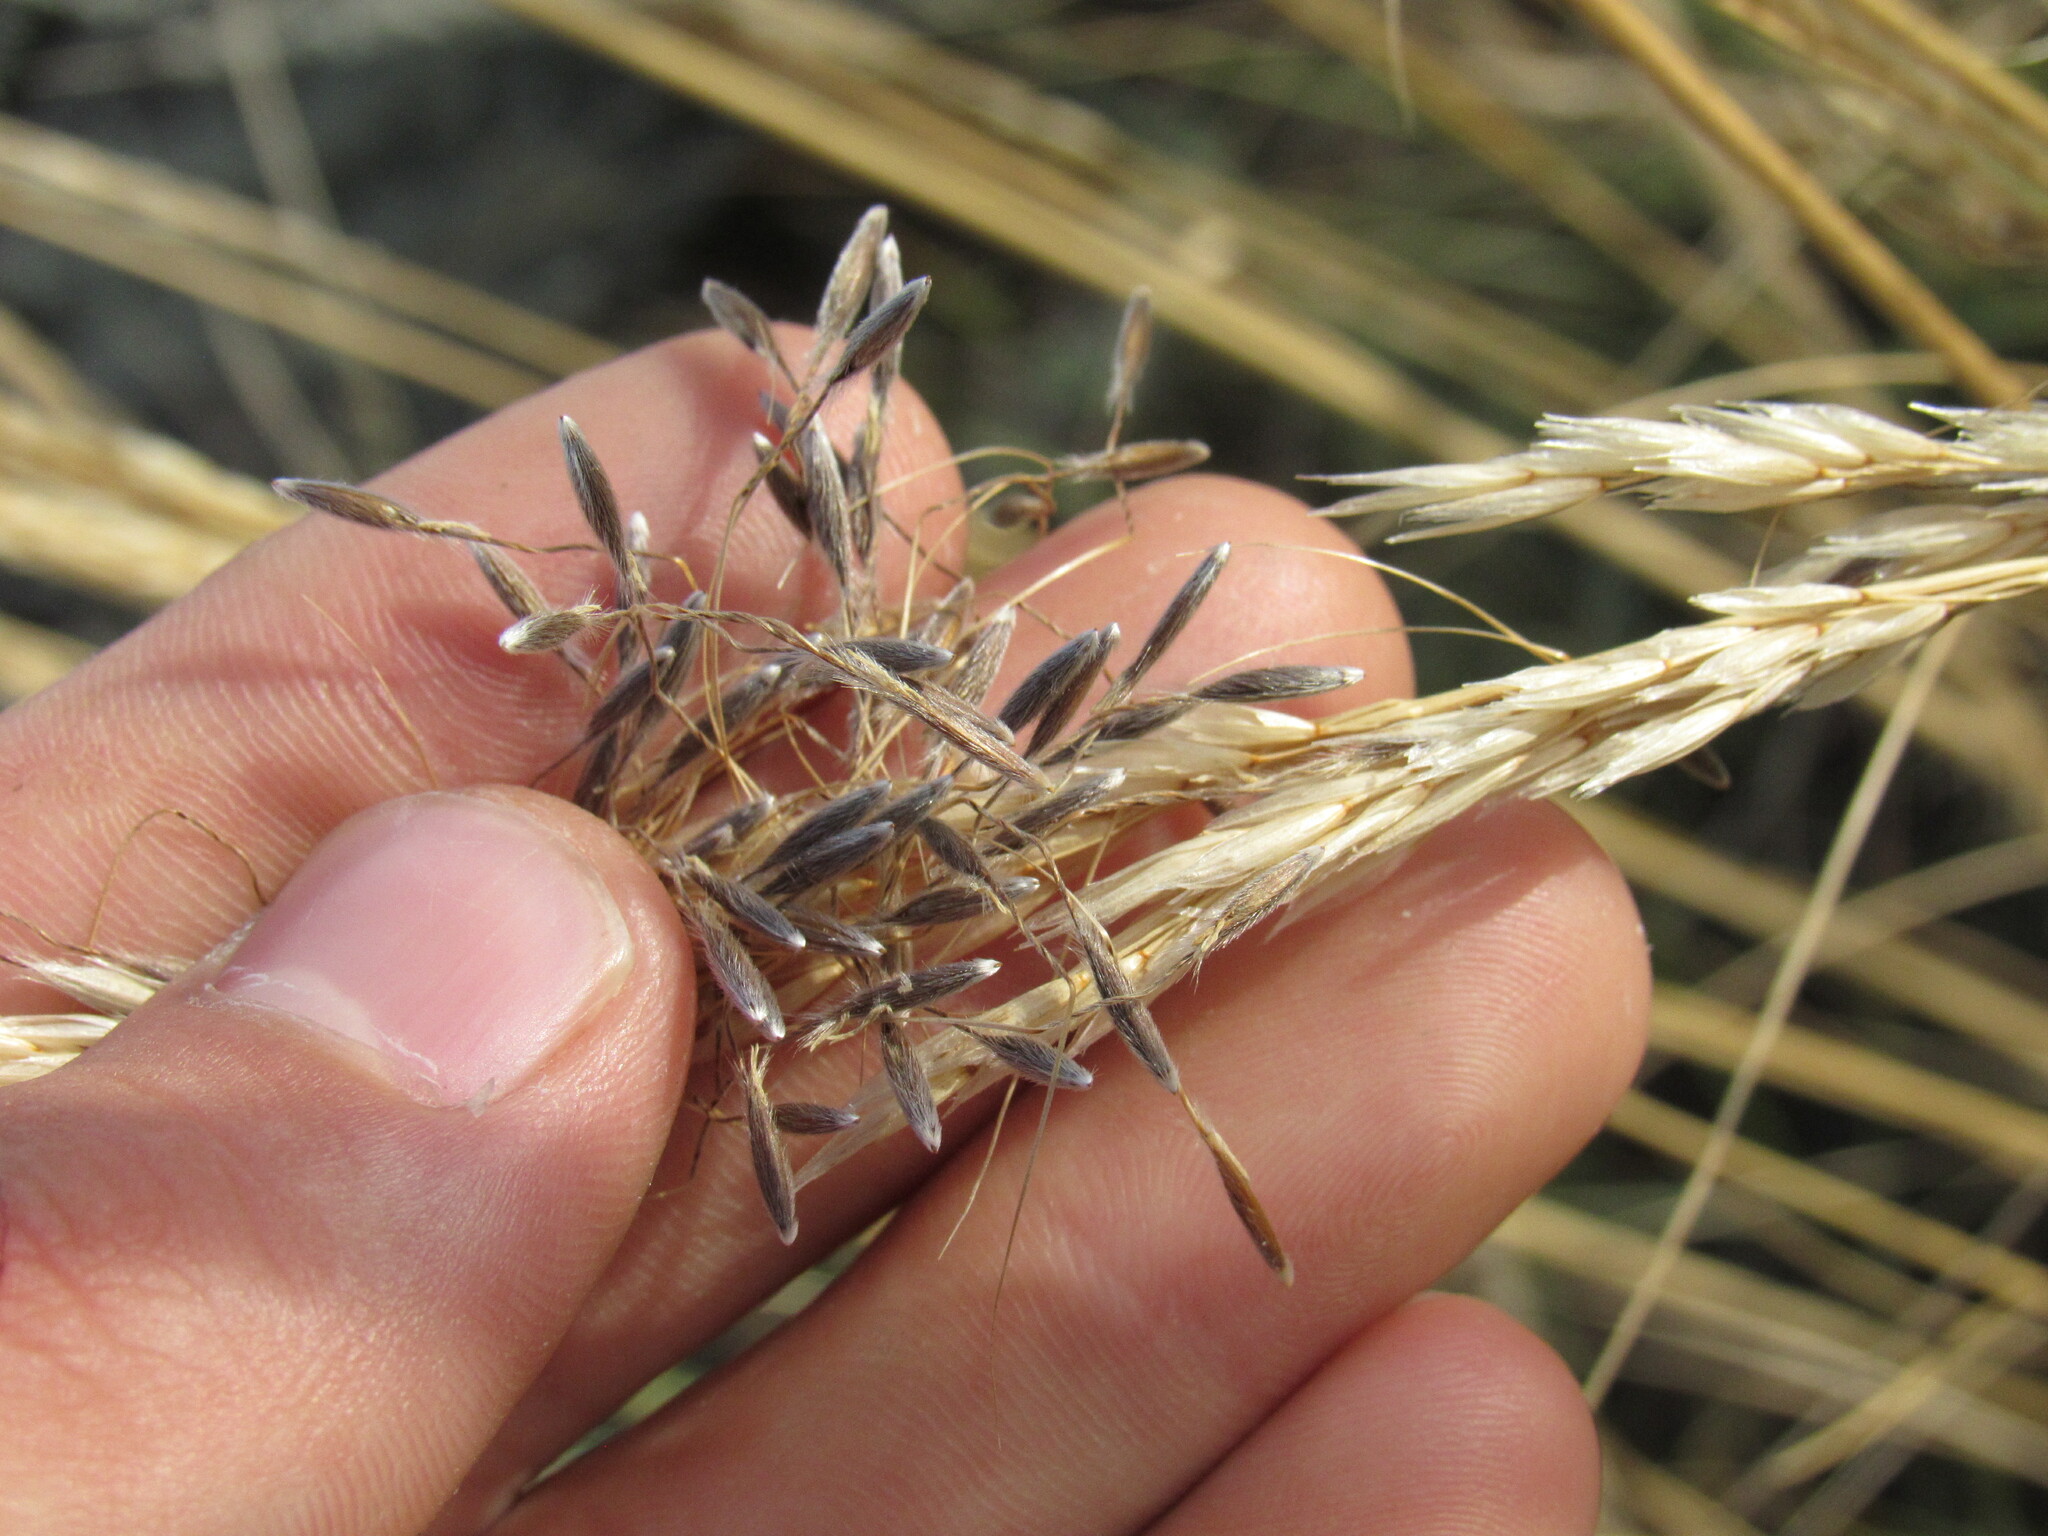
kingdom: Plantae
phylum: Tracheophyta
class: Liliopsida
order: Poales
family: Poaceae
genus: Eriocoma
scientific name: Eriocoma nelsonii
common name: Nelson's needlegrass
